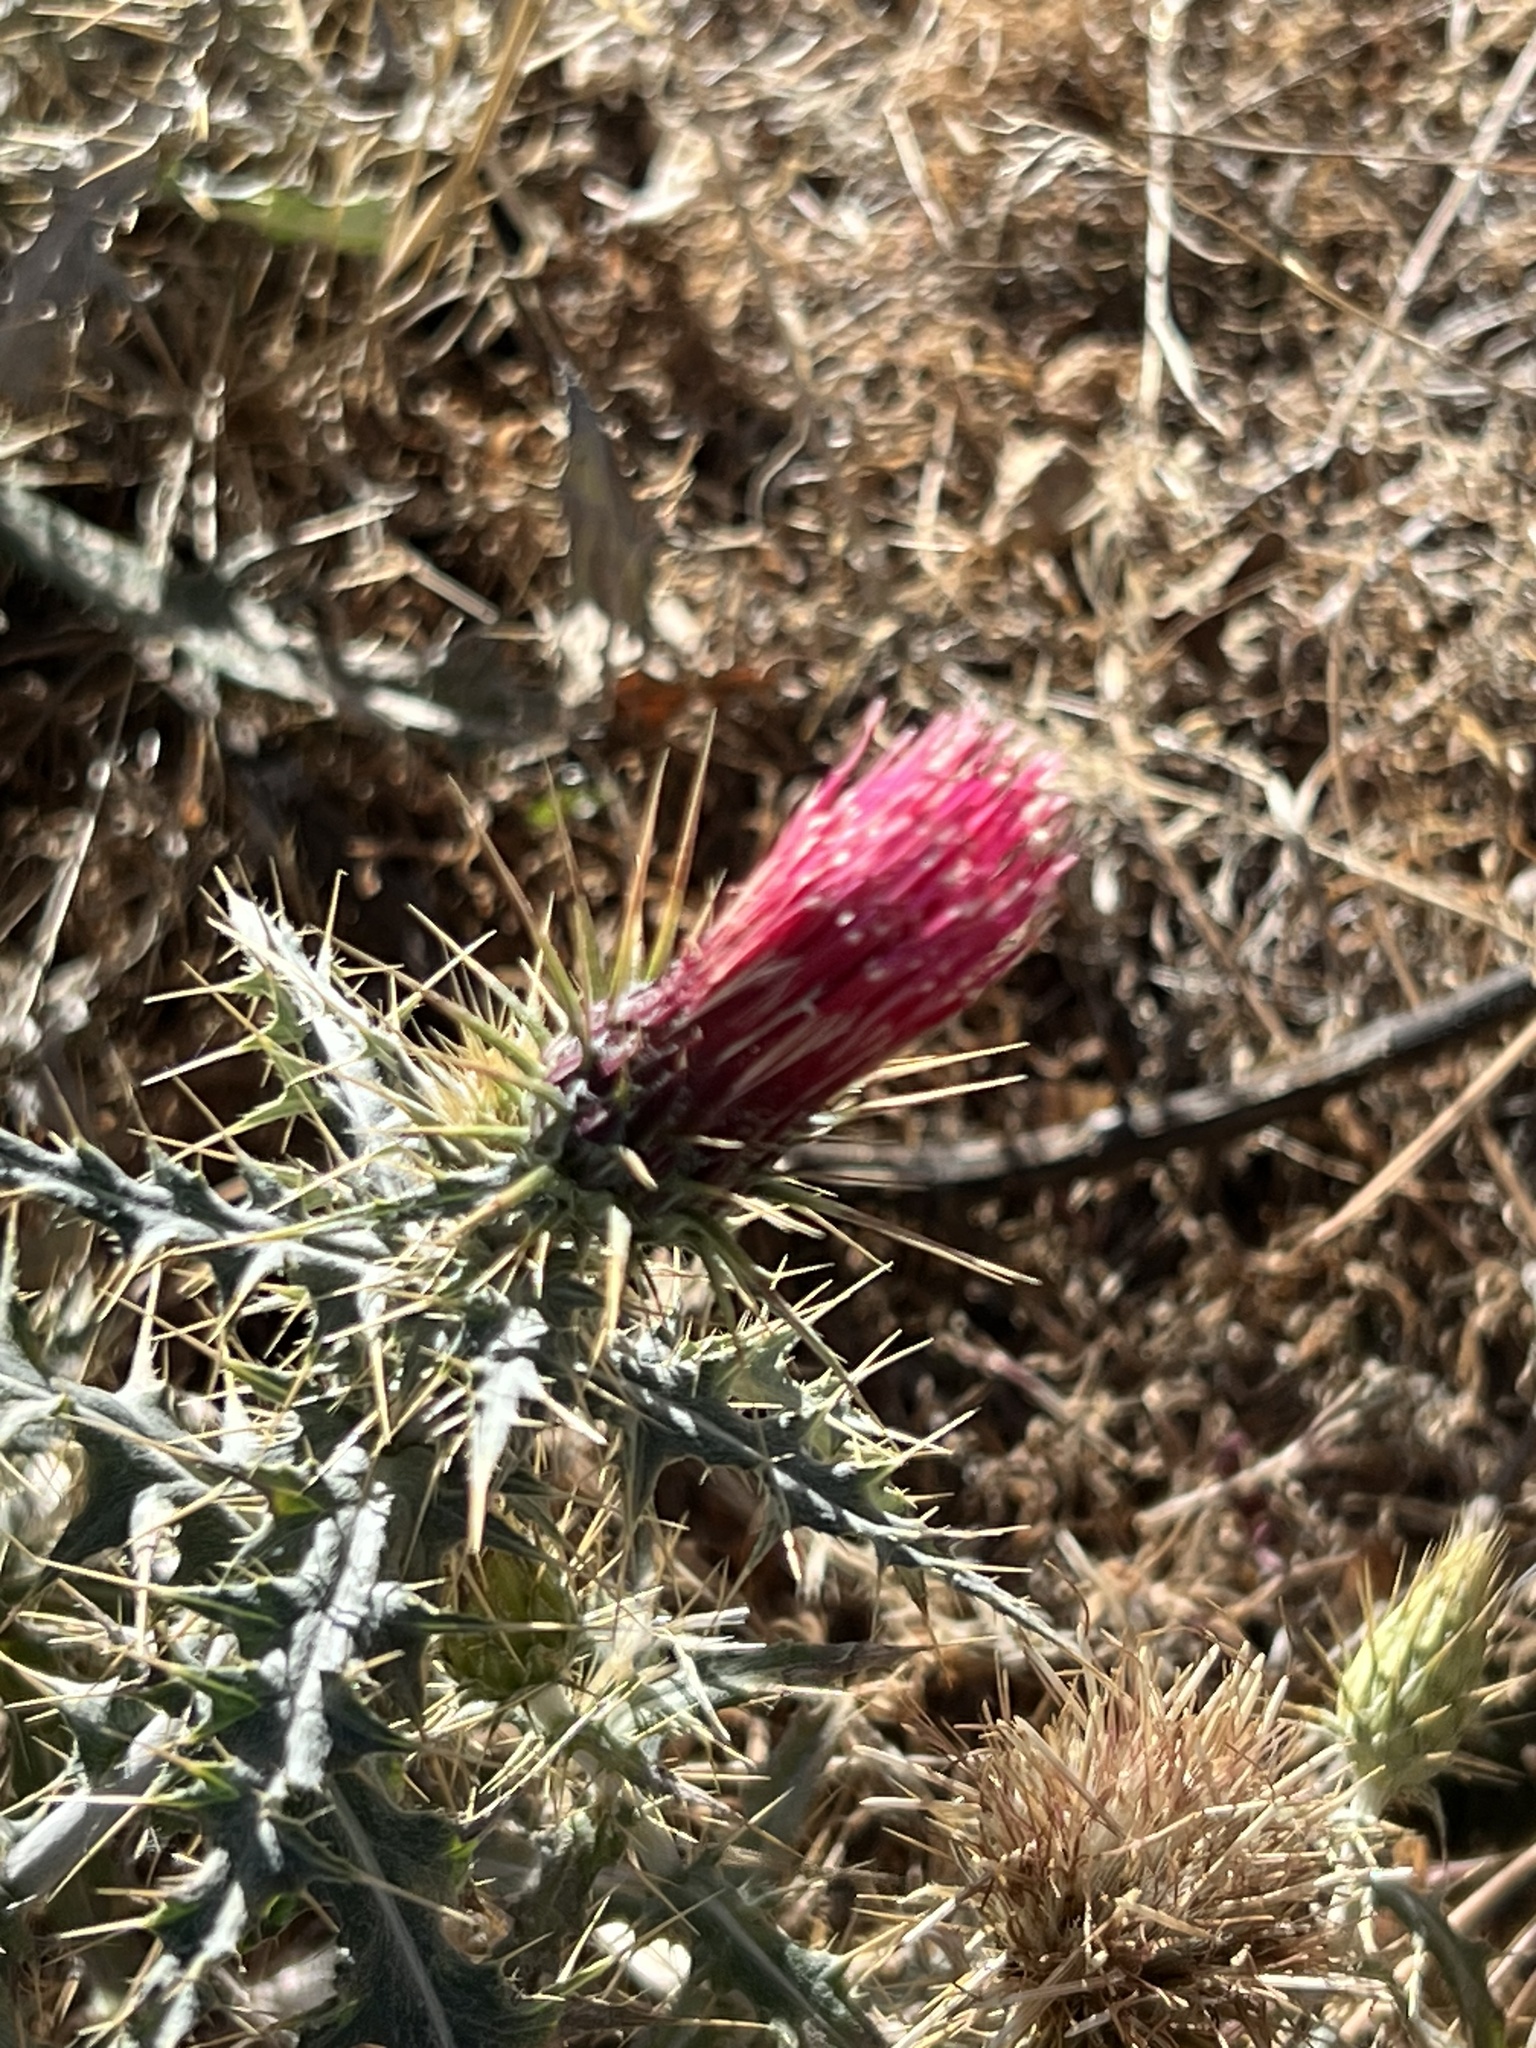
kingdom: Plantae
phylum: Tracheophyta
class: Magnoliopsida
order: Asterales
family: Asteraceae
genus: Cirsium
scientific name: Cirsium arizonicum
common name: Arizona thistle
